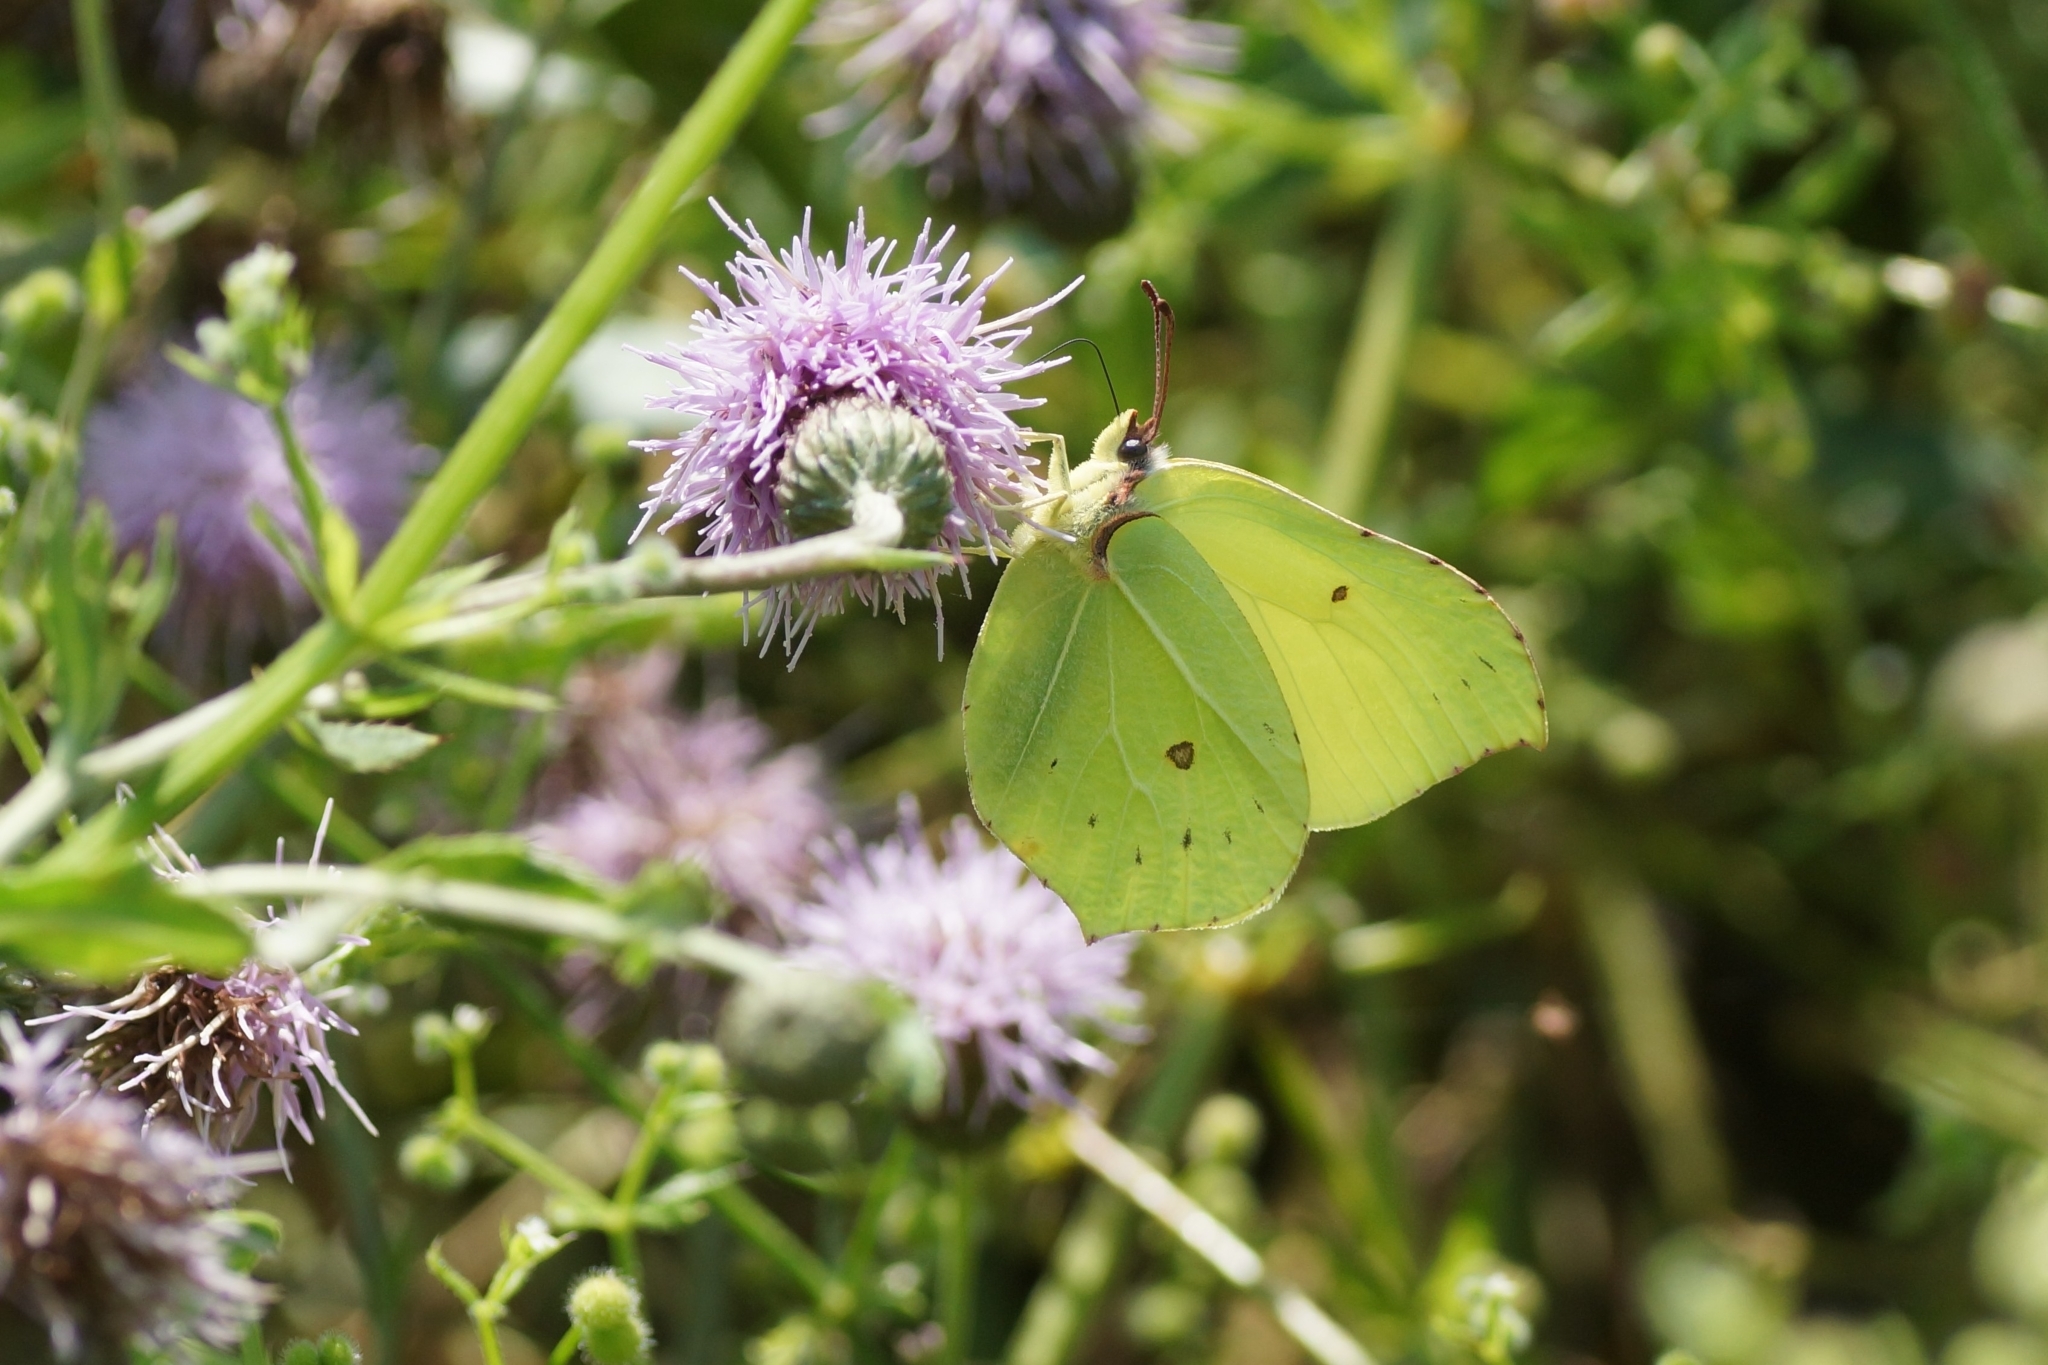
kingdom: Animalia
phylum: Arthropoda
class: Insecta
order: Lepidoptera
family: Pieridae
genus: Gonepteryx
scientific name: Gonepteryx rhamni
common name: Brimstone
